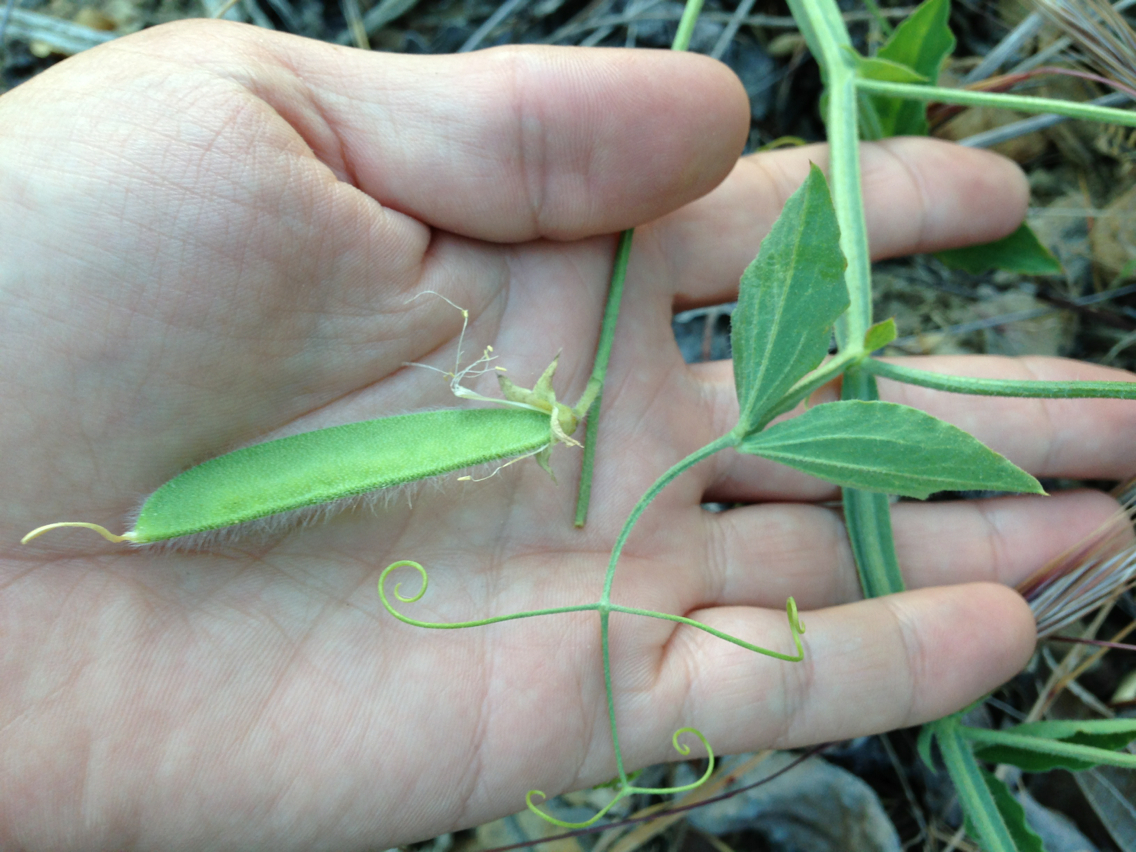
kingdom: Plantae
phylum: Tracheophyta
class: Magnoliopsida
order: Fabales
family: Fabaceae
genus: Lathyrus
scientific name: Lathyrus odoratus
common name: Sweet pea
